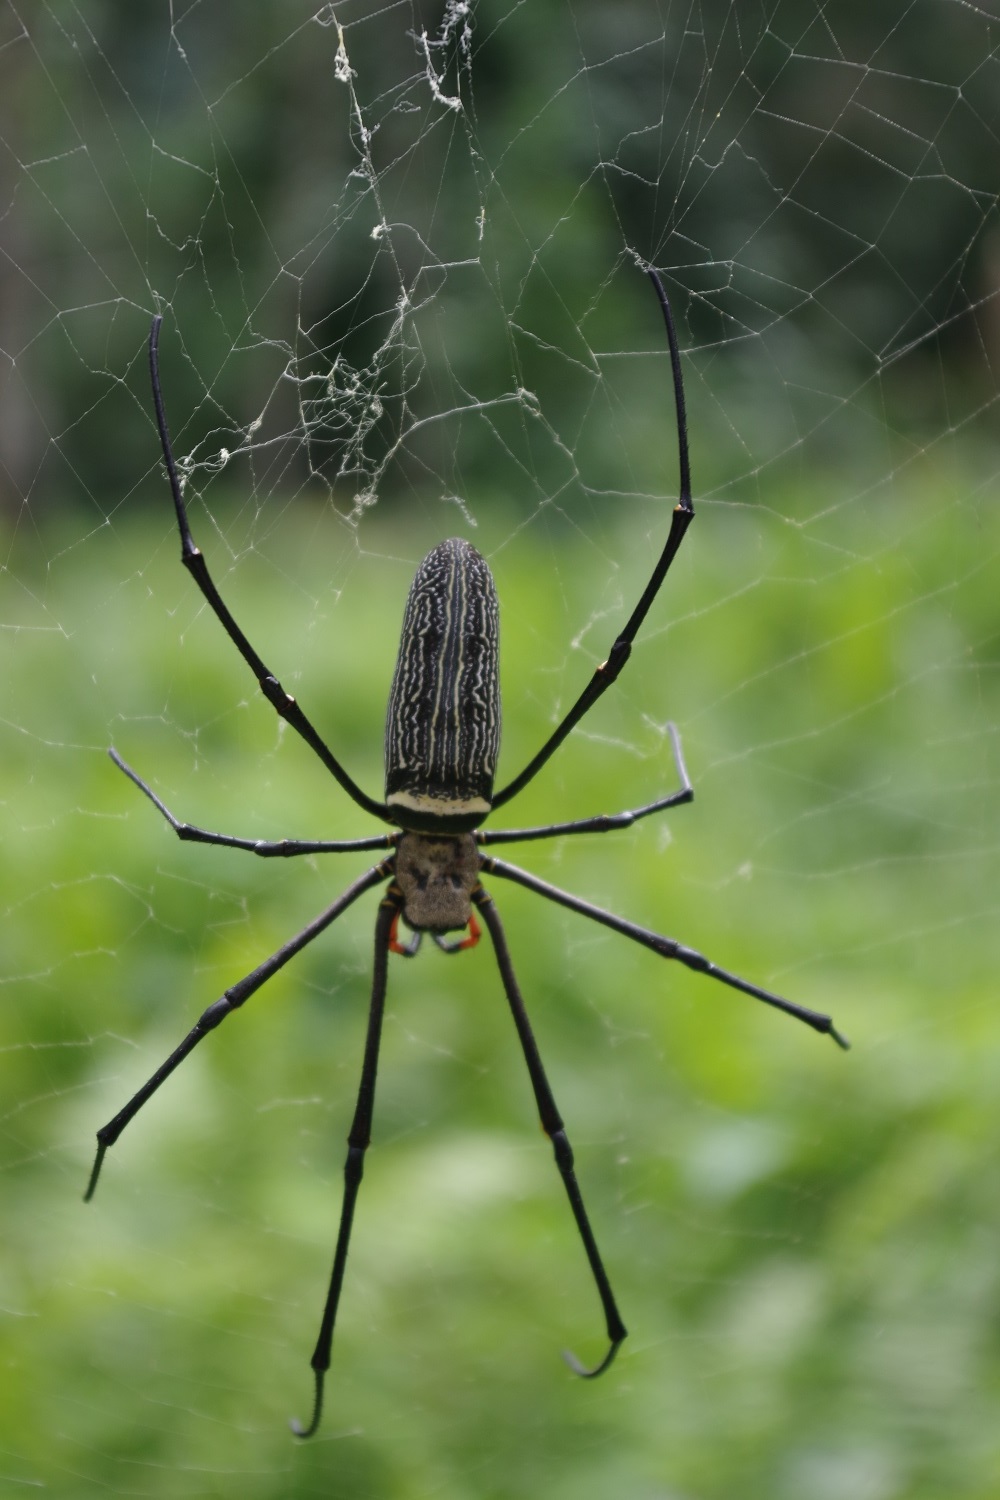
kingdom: Animalia
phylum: Arthropoda
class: Arachnida
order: Araneae
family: Araneidae
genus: Nephila
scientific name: Nephila pilipes
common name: Giant golden orb weaver
